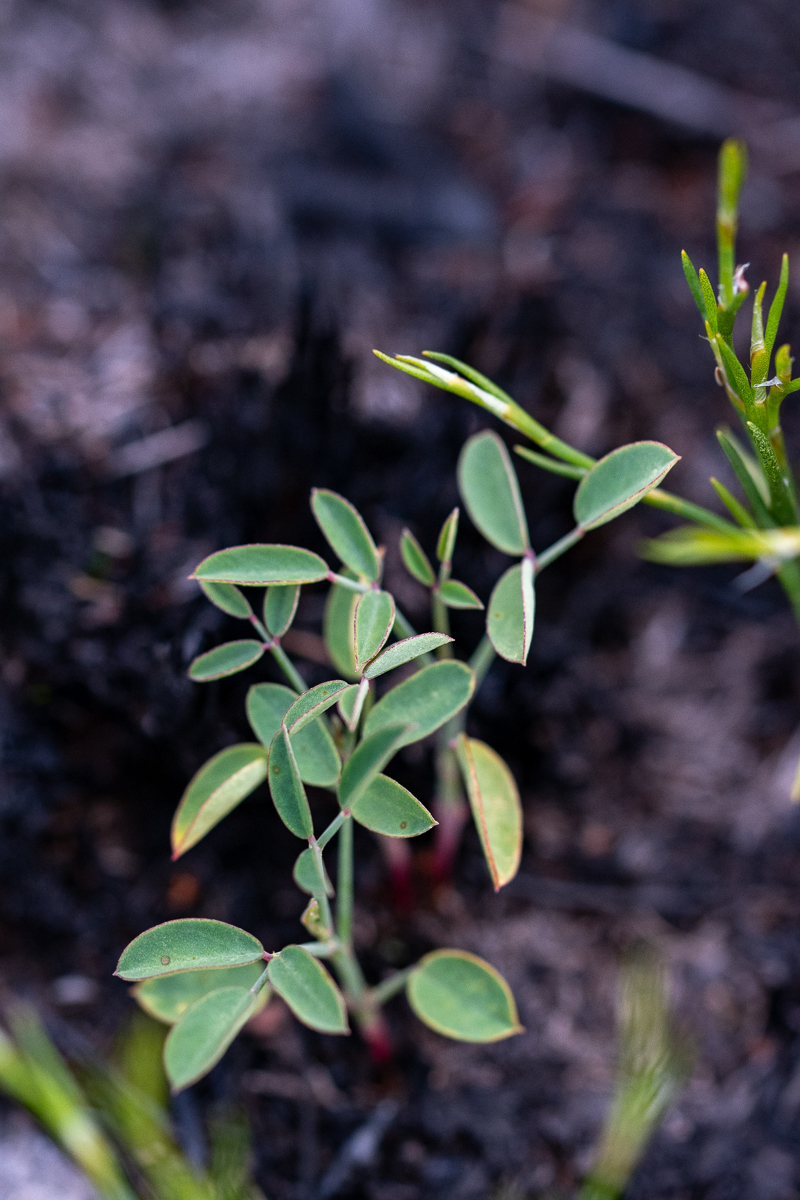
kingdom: Plantae
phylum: Tracheophyta
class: Magnoliopsida
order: Fabales
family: Fabaceae
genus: Indigofera
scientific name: Indigofera ionii
